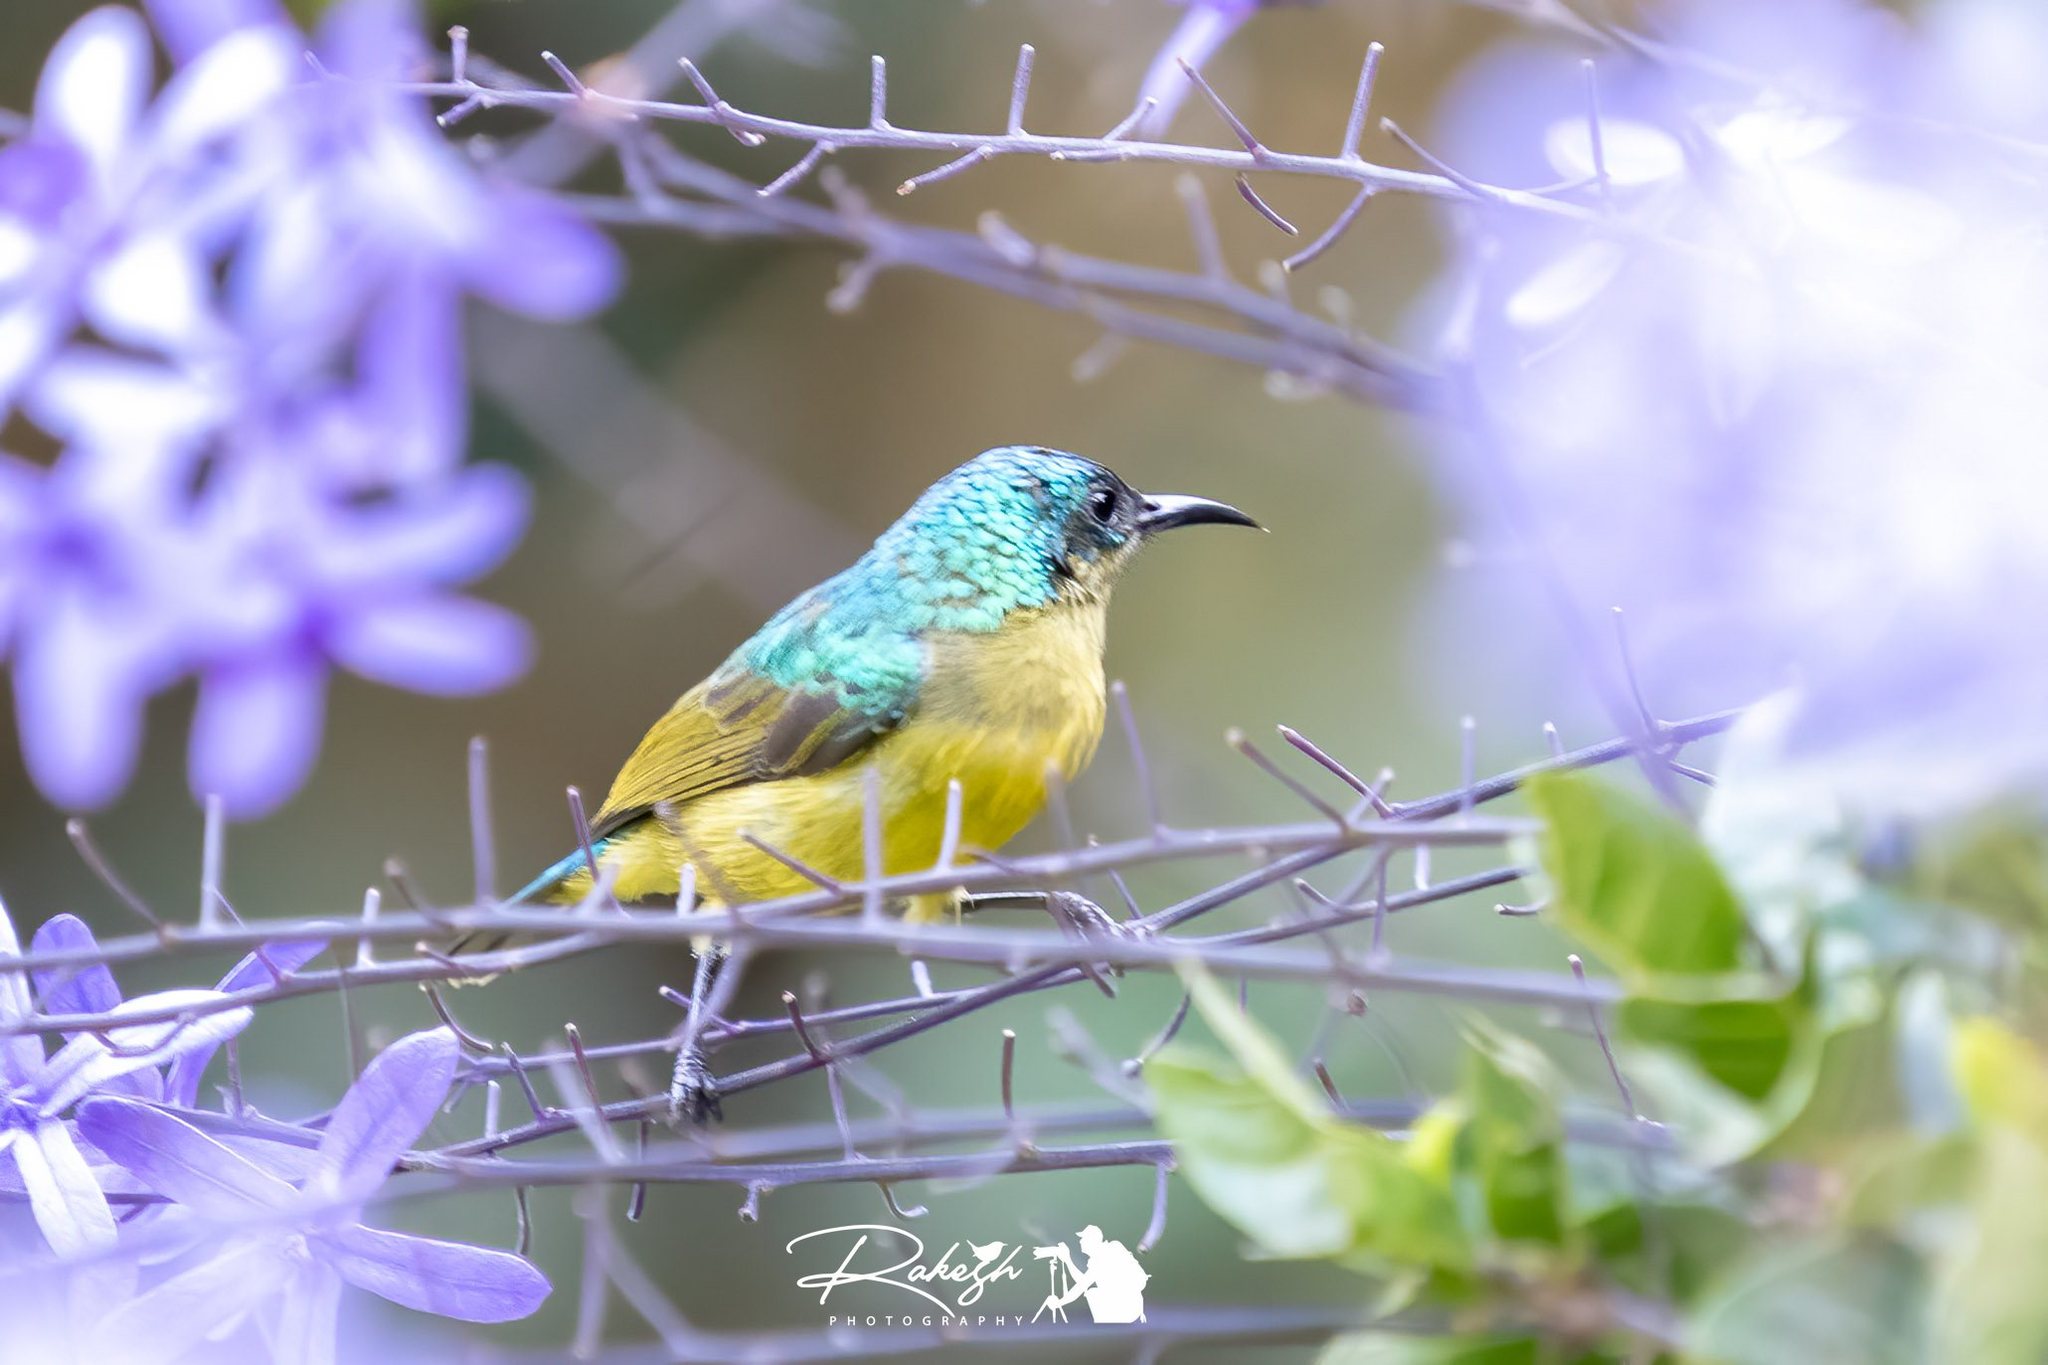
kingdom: Animalia
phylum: Chordata
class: Aves
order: Passeriformes
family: Nectariniidae
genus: Hedydipna
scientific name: Hedydipna collaris
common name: Collared sunbird
